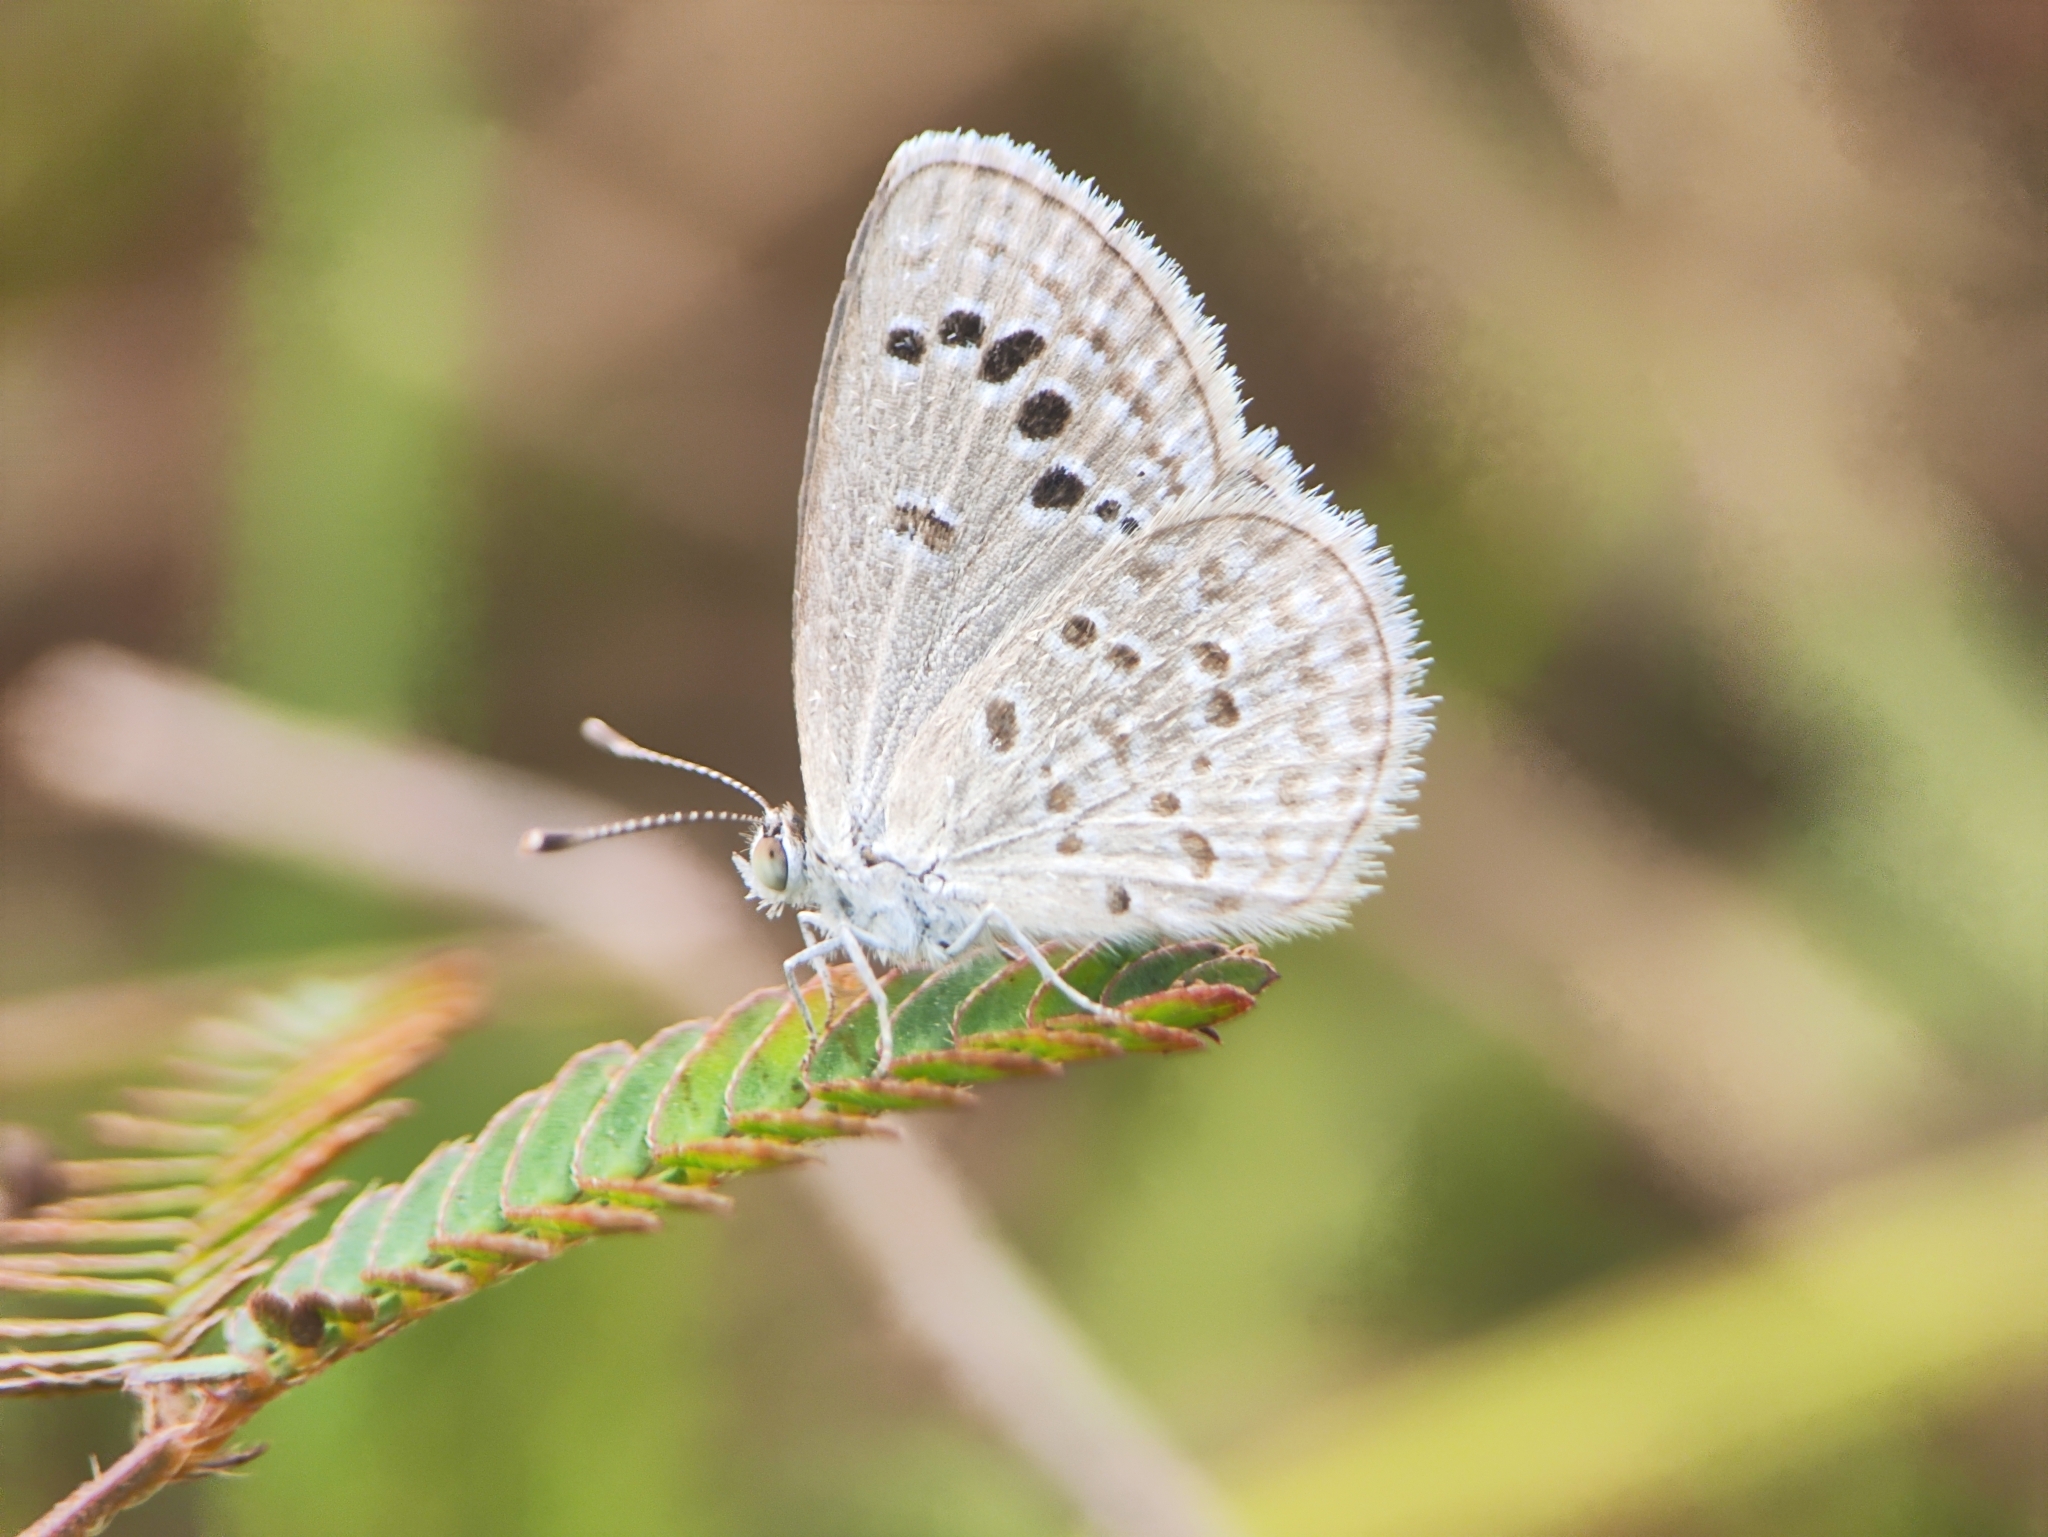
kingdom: Animalia
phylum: Arthropoda
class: Insecta
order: Lepidoptera
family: Lycaenidae
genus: Zizina
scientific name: Zizina otis
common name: Lesser grass blue
